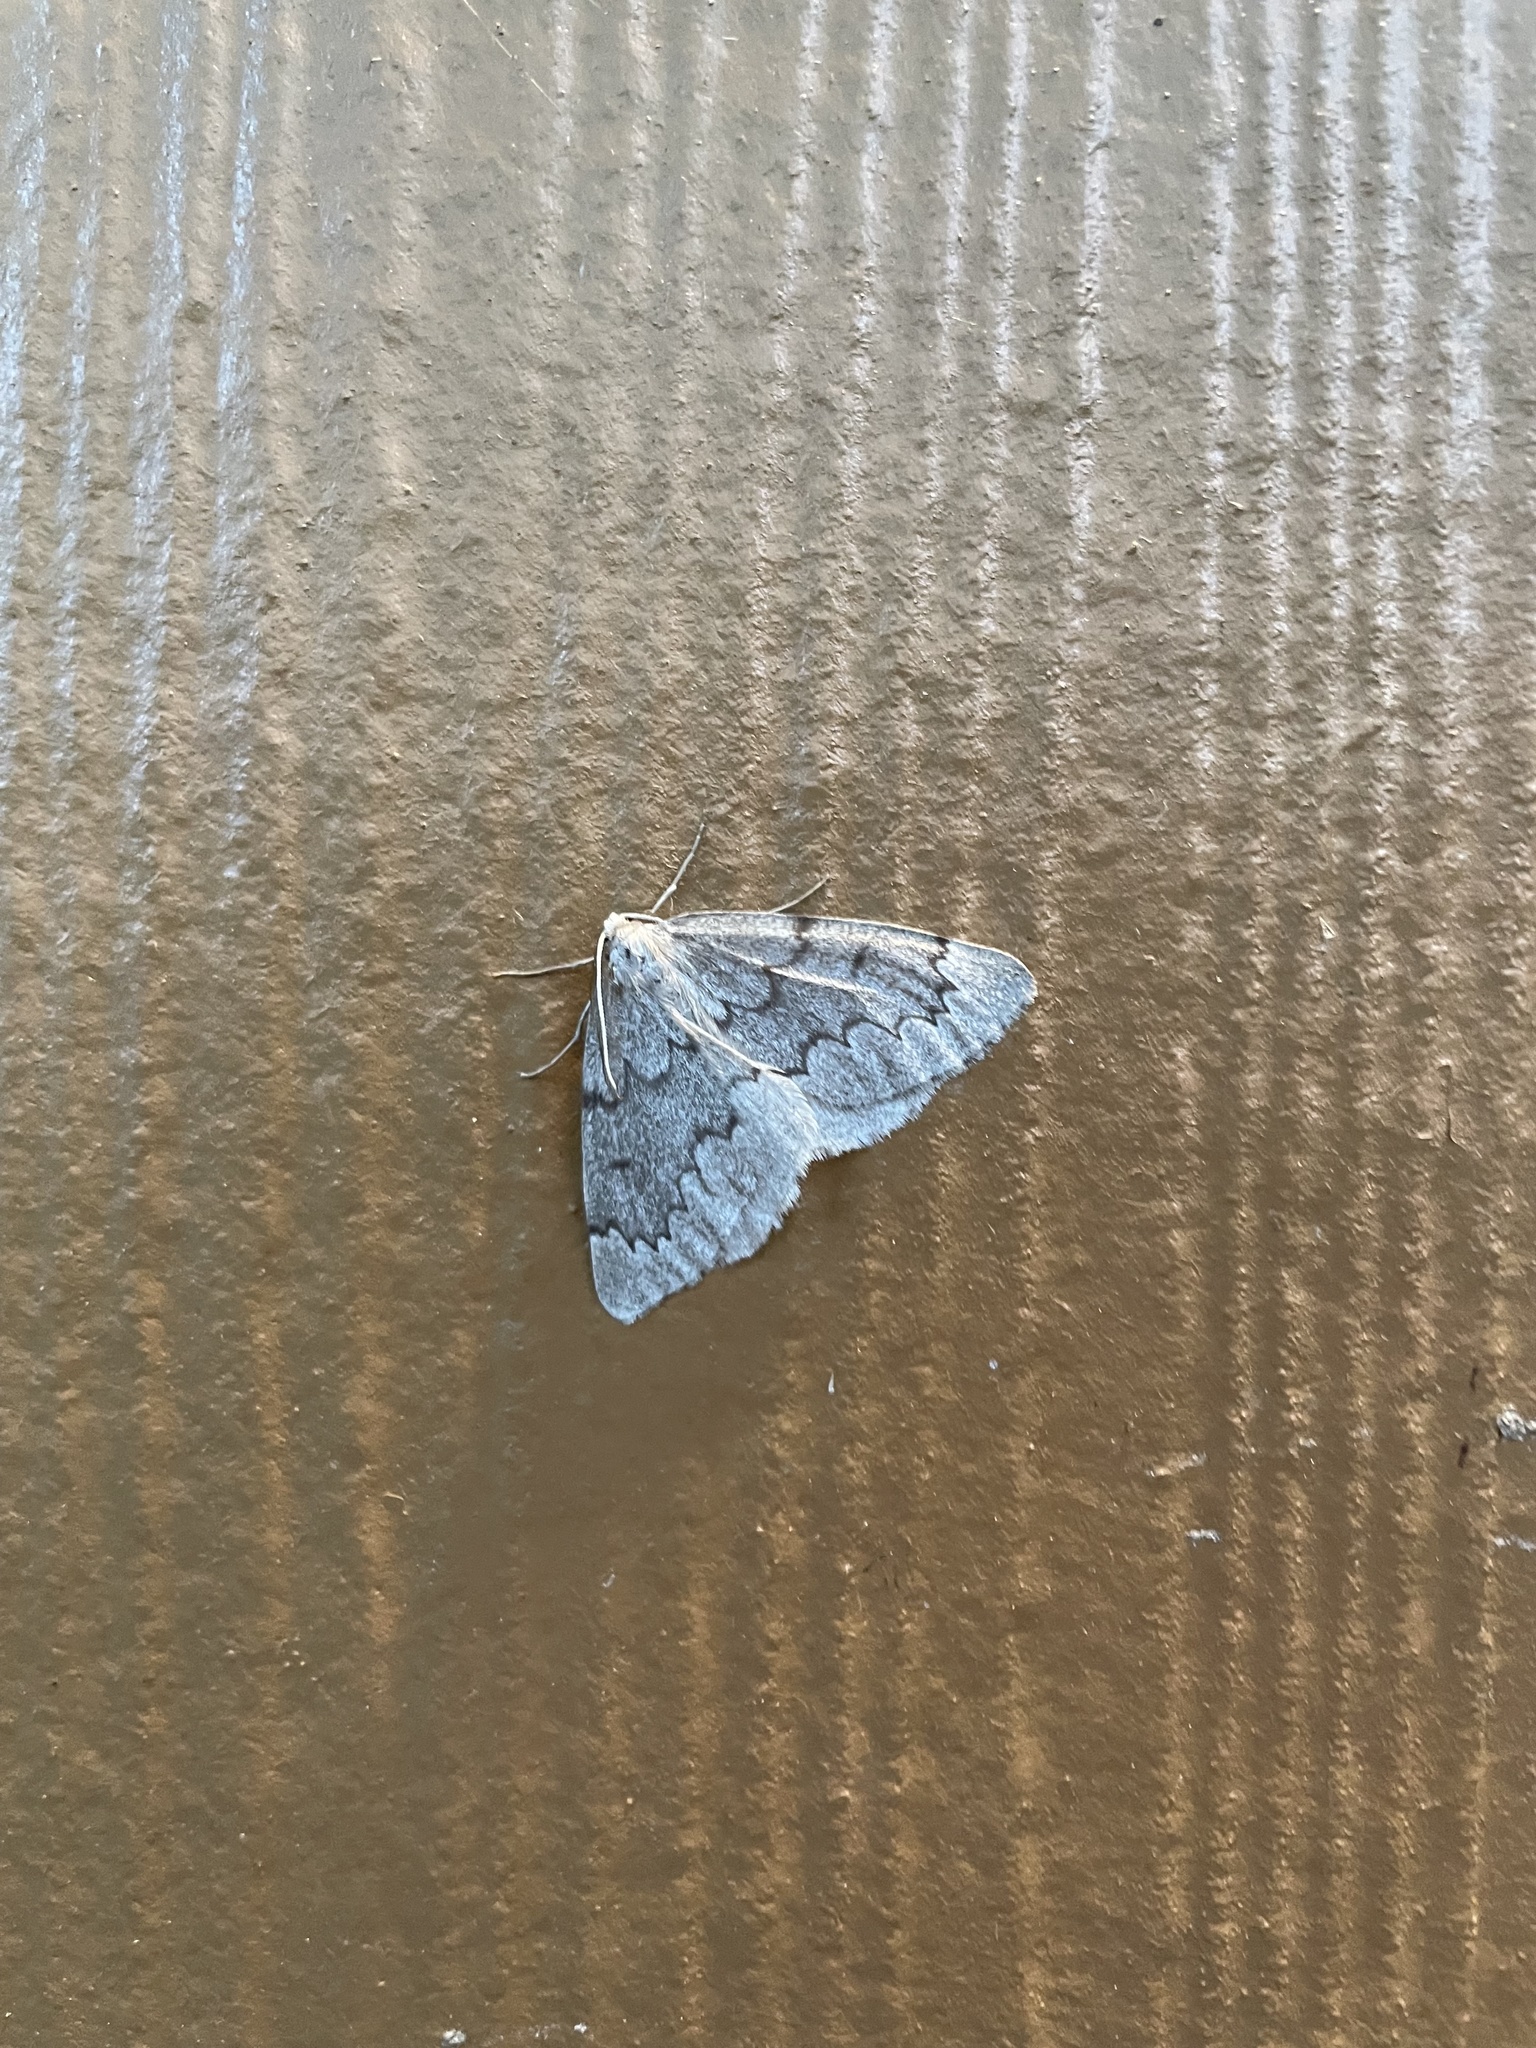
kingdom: Animalia
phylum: Arthropoda
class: Insecta
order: Lepidoptera
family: Geometridae
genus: Nepytia
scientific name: Nepytia canosaria
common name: False hemlock looper
